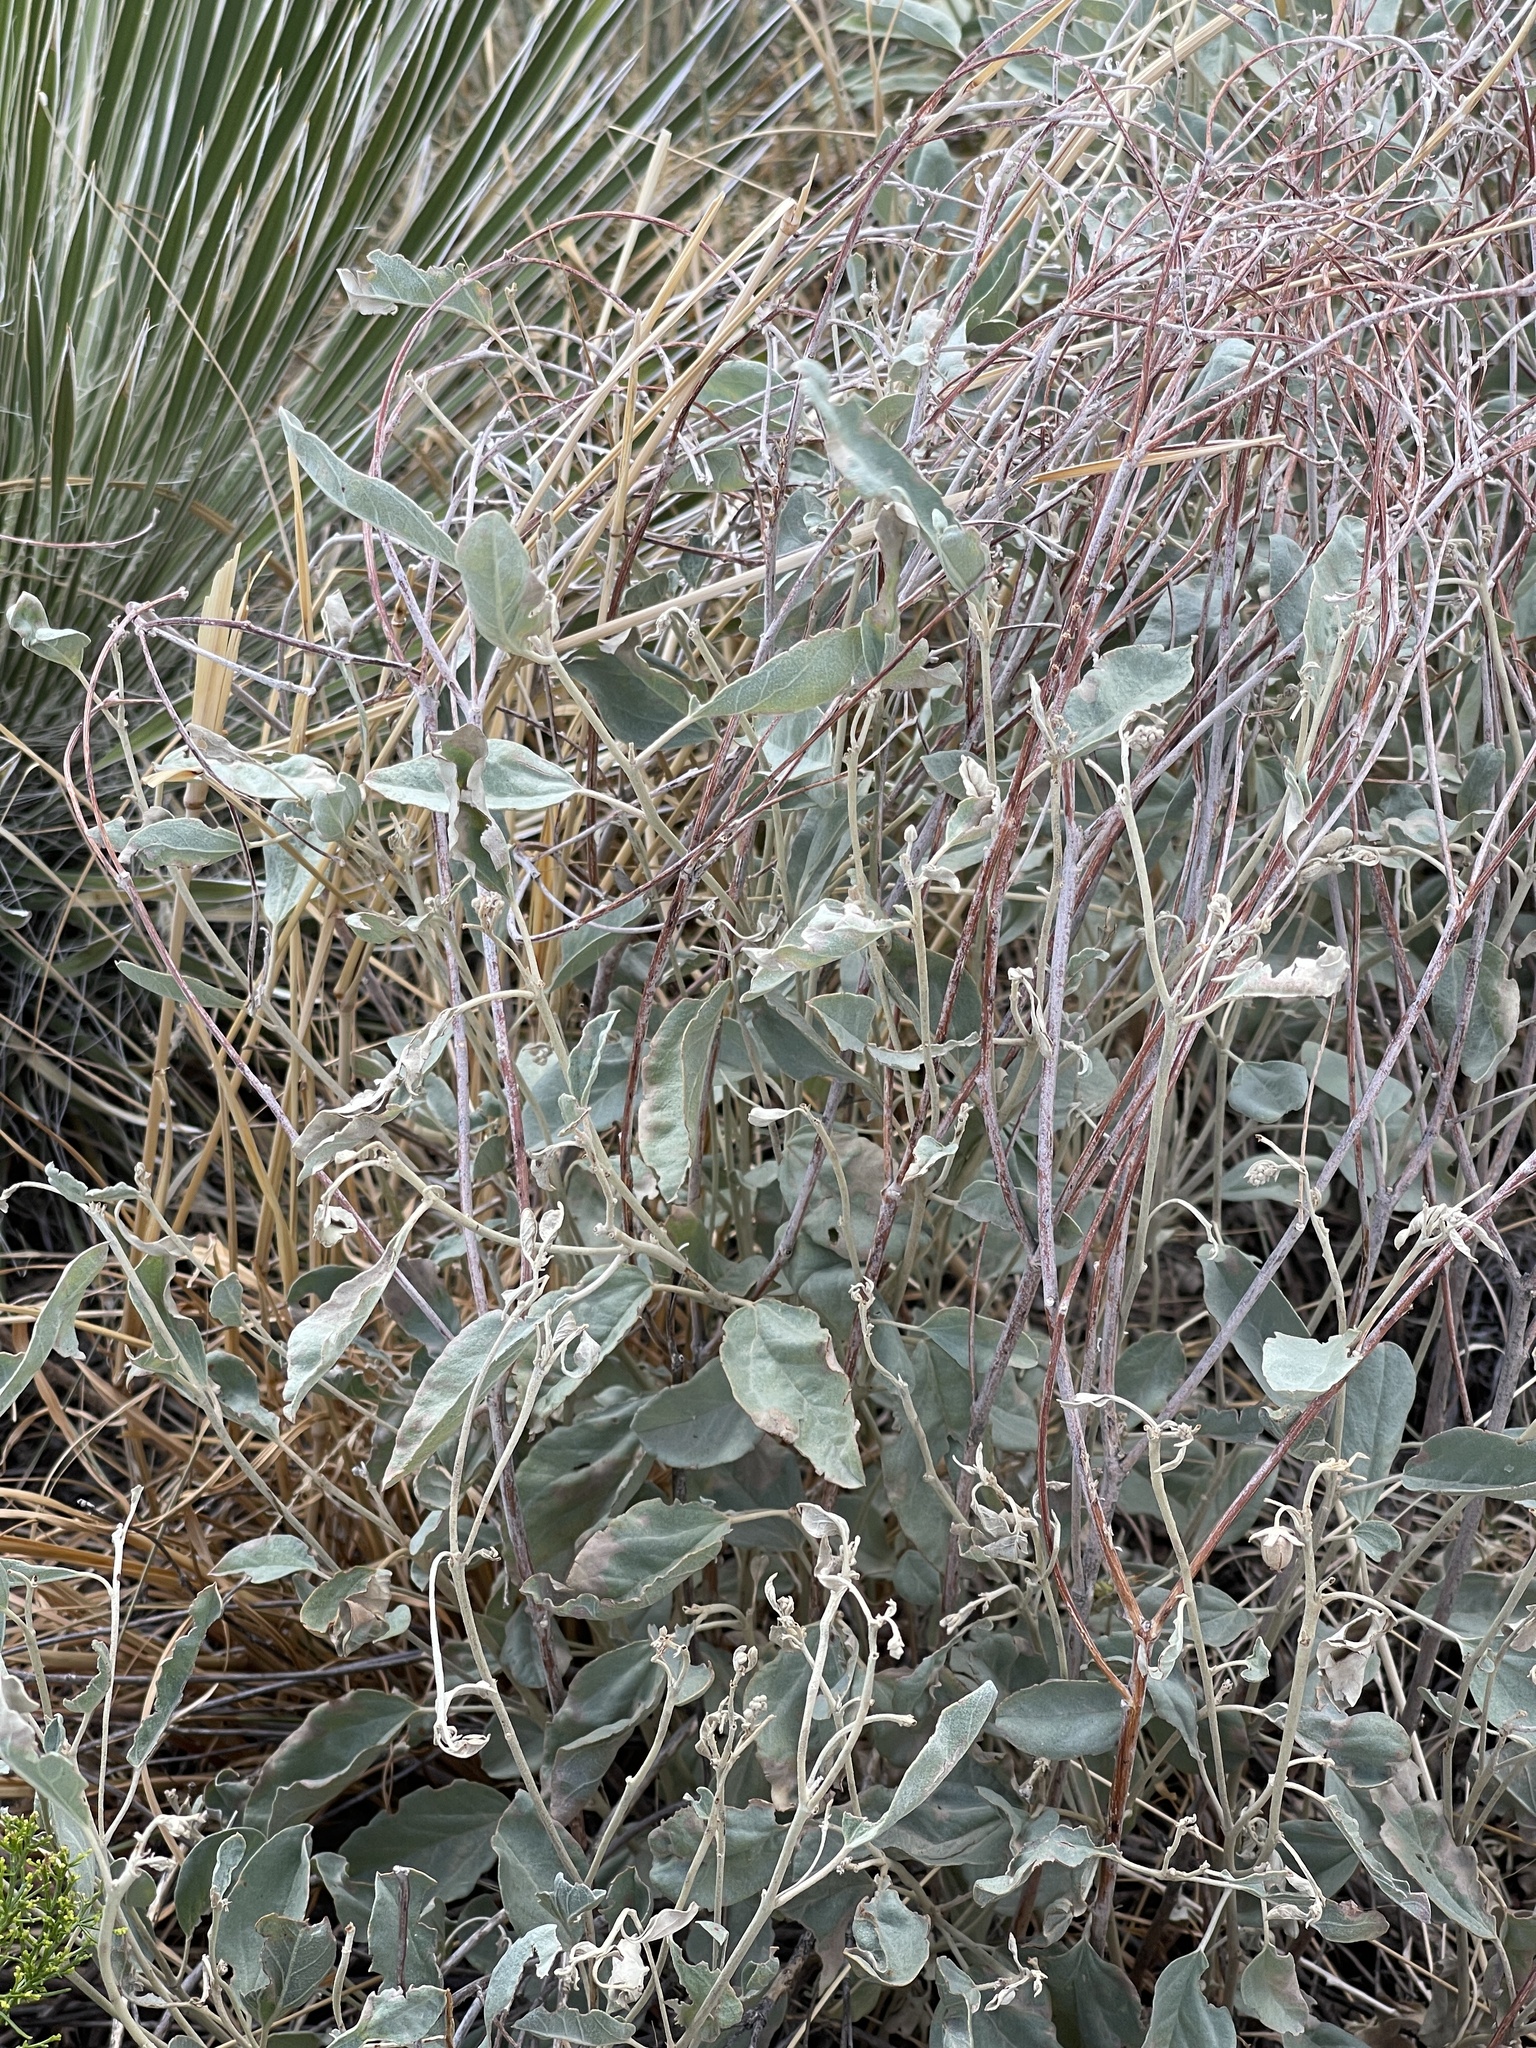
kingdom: Plantae
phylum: Tracheophyta
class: Magnoliopsida
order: Malpighiales
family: Euphorbiaceae
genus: Croton
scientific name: Croton pottsii
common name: Leatherweed
